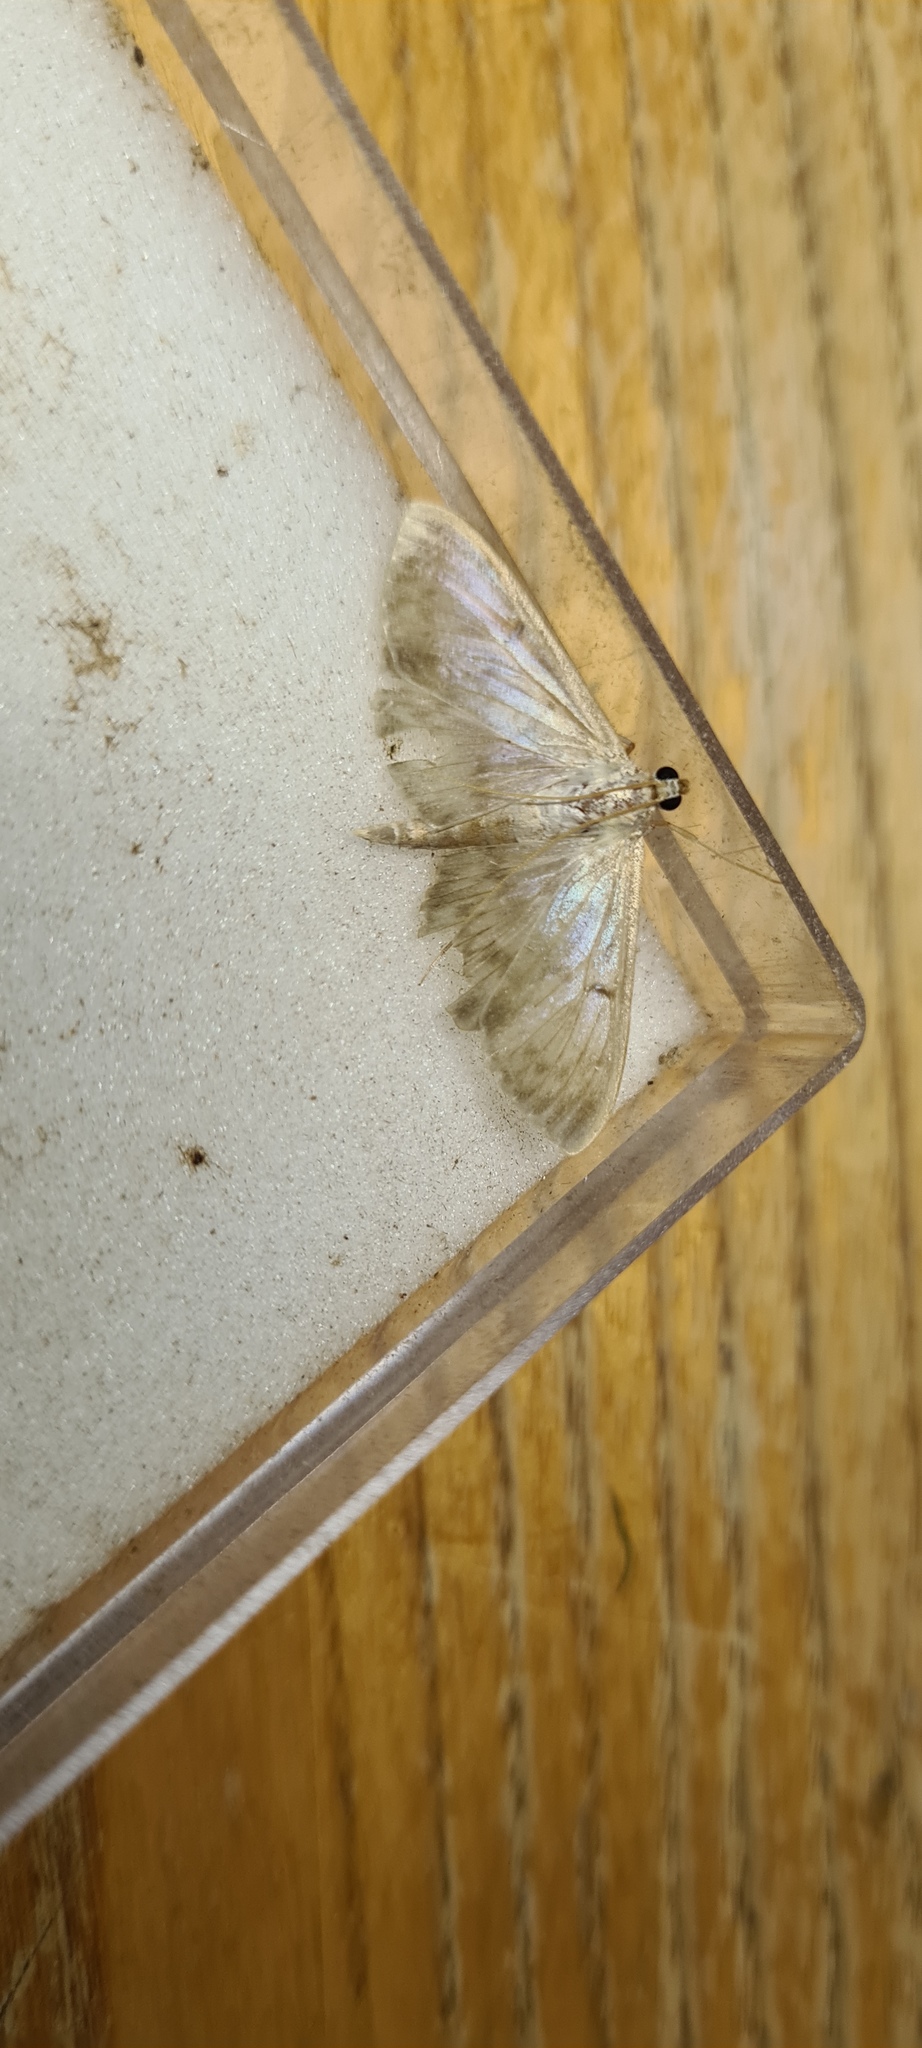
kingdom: Animalia
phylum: Arthropoda
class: Insecta
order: Lepidoptera
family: Crambidae
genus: Patania
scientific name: Patania ruralis
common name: Mother of pearl
